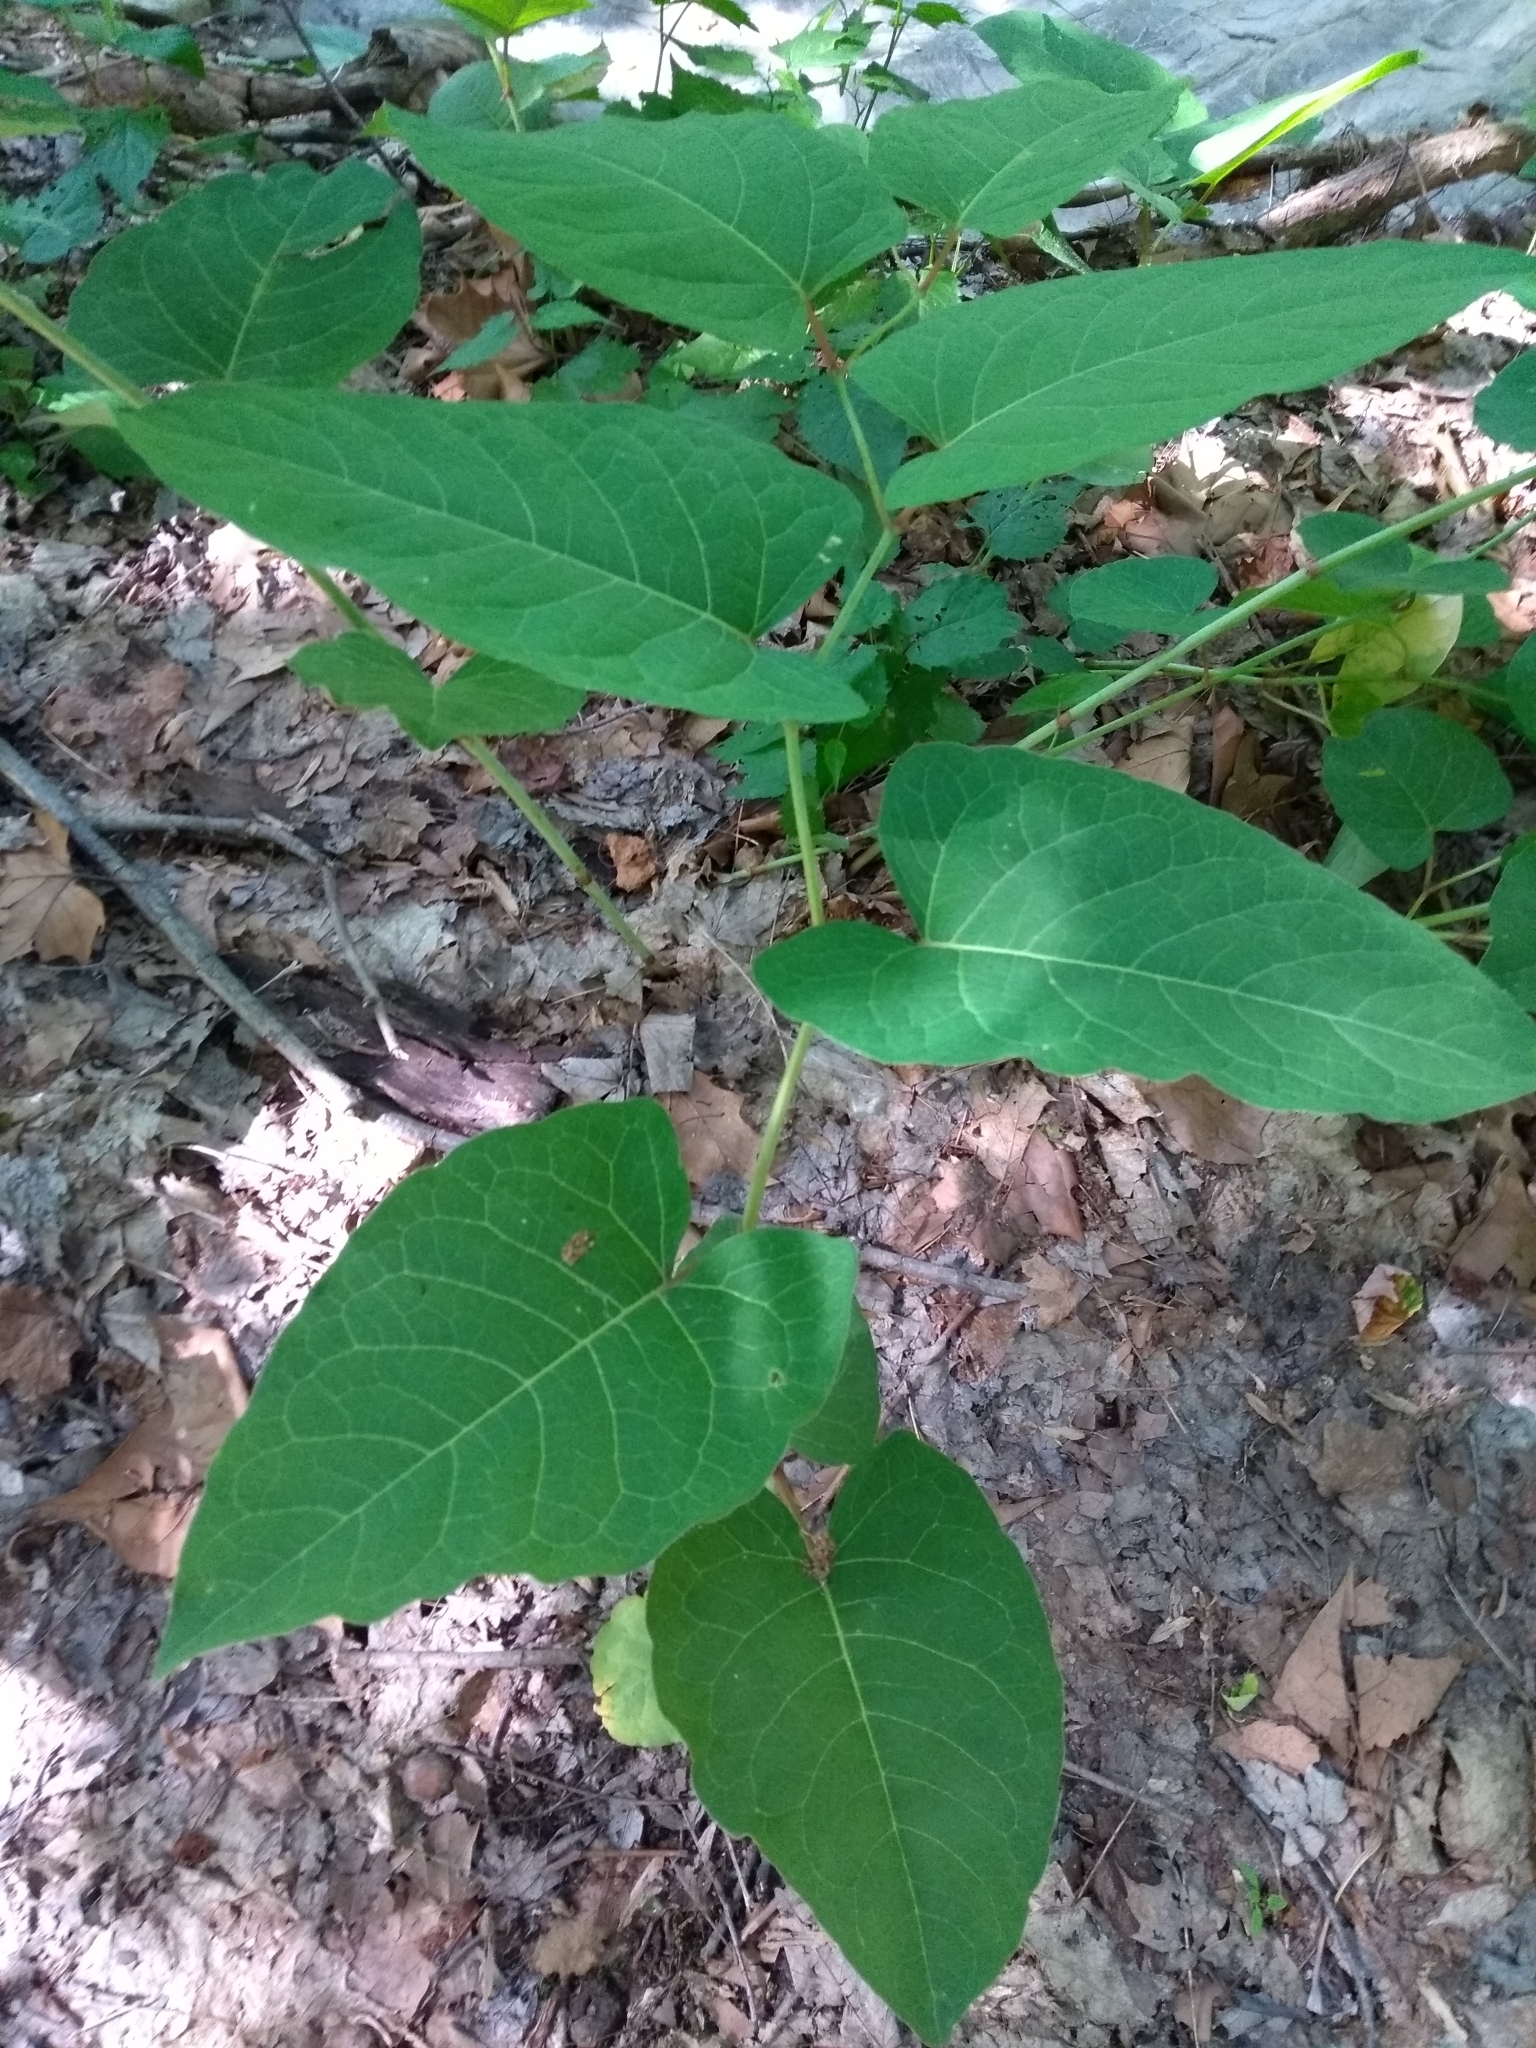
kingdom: Plantae
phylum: Tracheophyta
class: Magnoliopsida
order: Caryophyllales
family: Polygonaceae
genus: Reynoutria
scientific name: Reynoutria japonica
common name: Japanese knotweed
